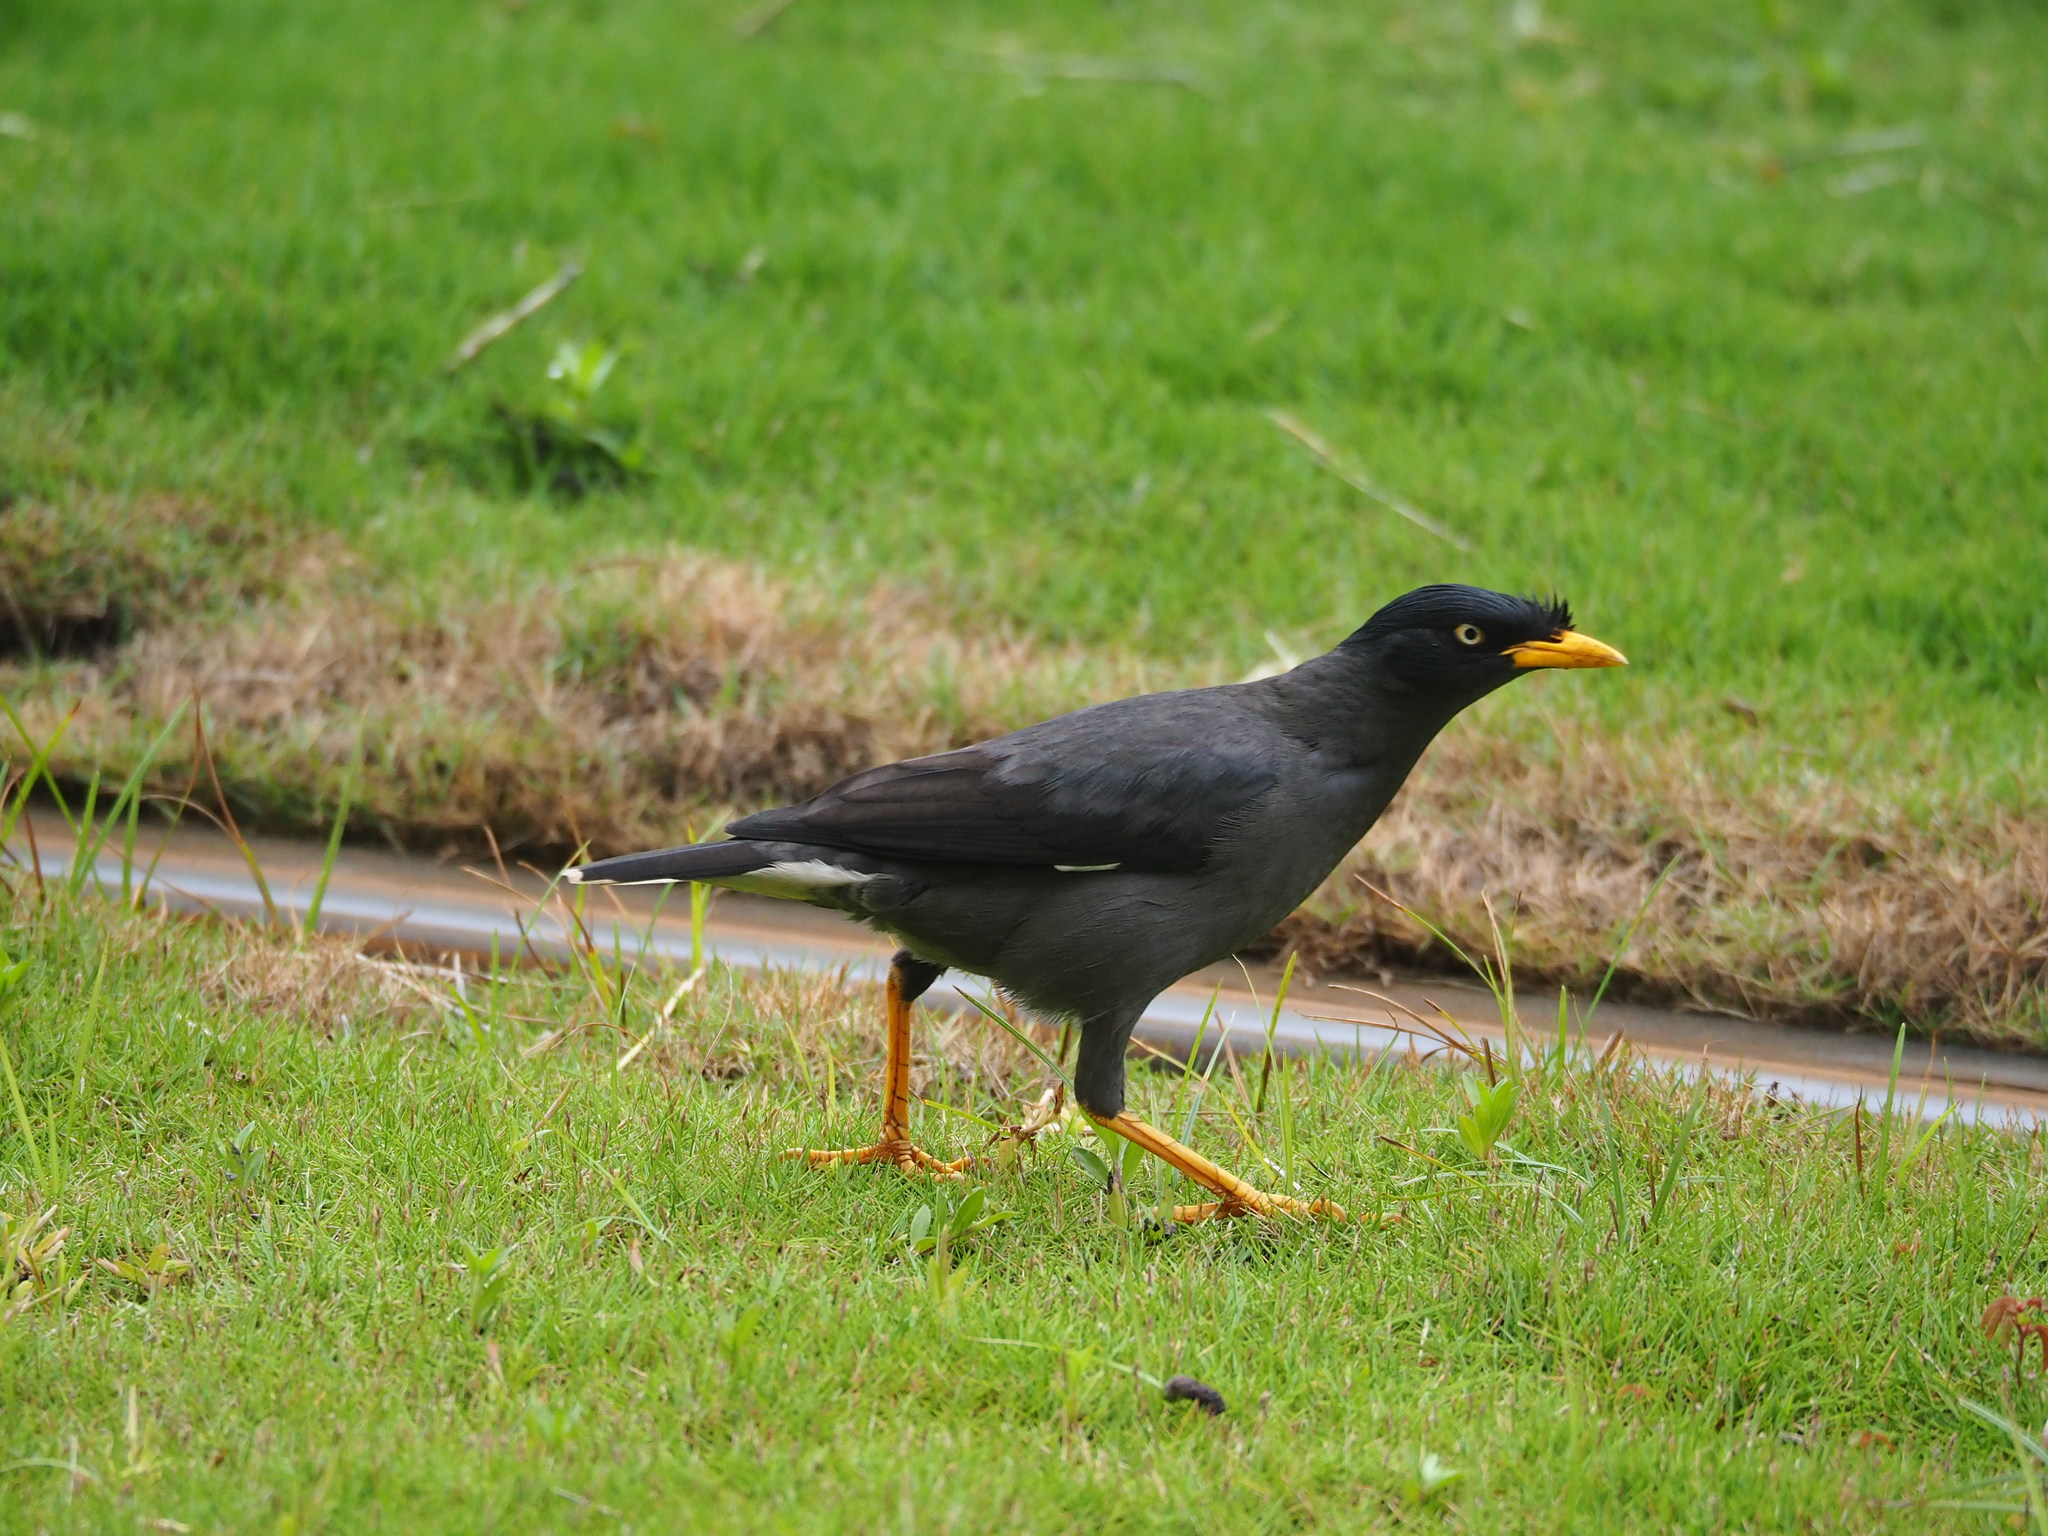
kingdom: Animalia
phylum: Chordata
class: Aves
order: Passeriformes
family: Sturnidae
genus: Acridotheres
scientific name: Acridotheres javanicus
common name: Javan myna
